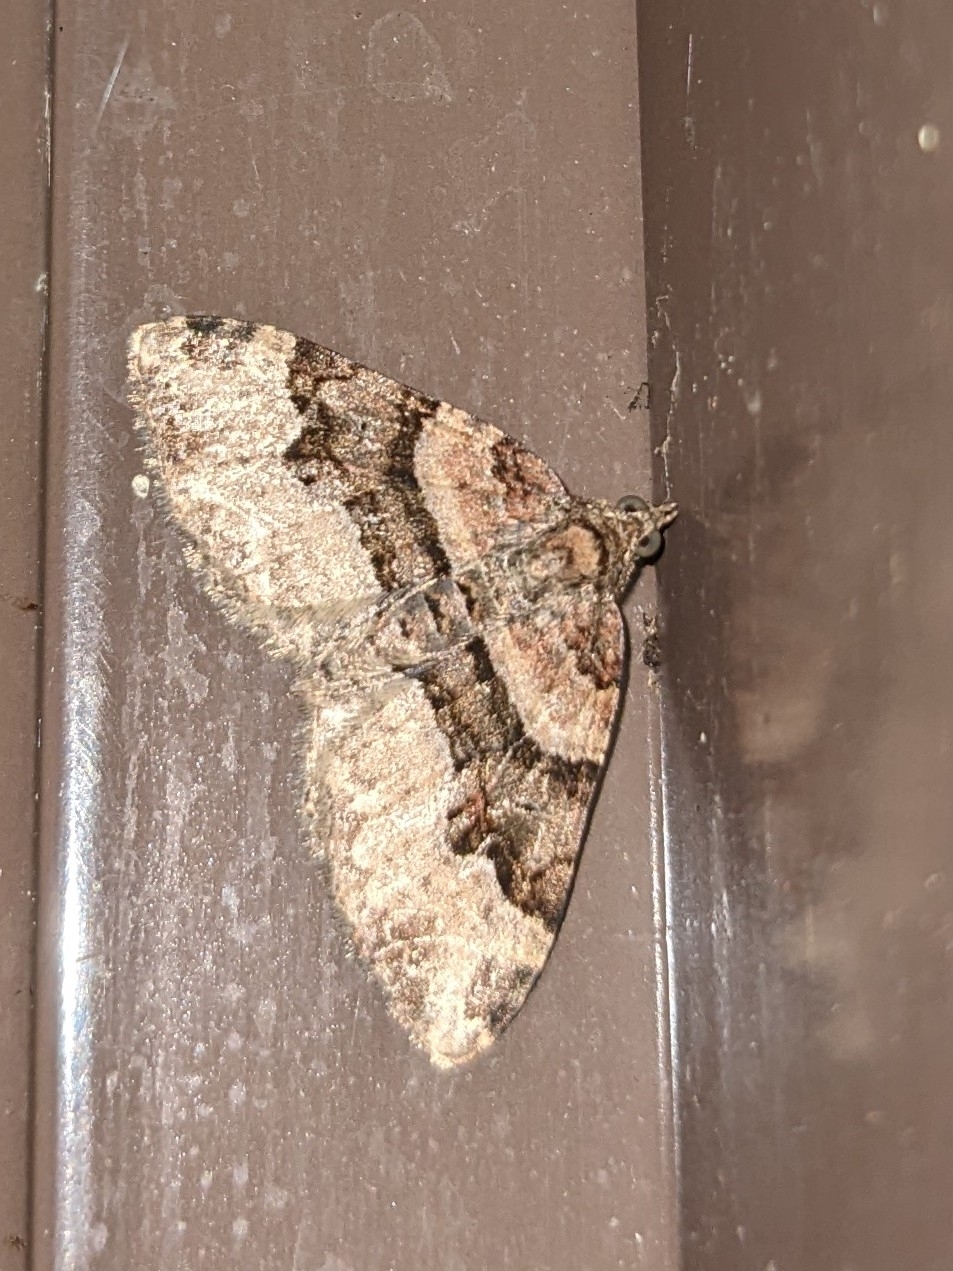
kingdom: Animalia
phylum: Arthropoda
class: Insecta
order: Lepidoptera
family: Geometridae
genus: Xanthorhoe
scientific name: Xanthorhoe lacustrata
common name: Toothed brown carpet
